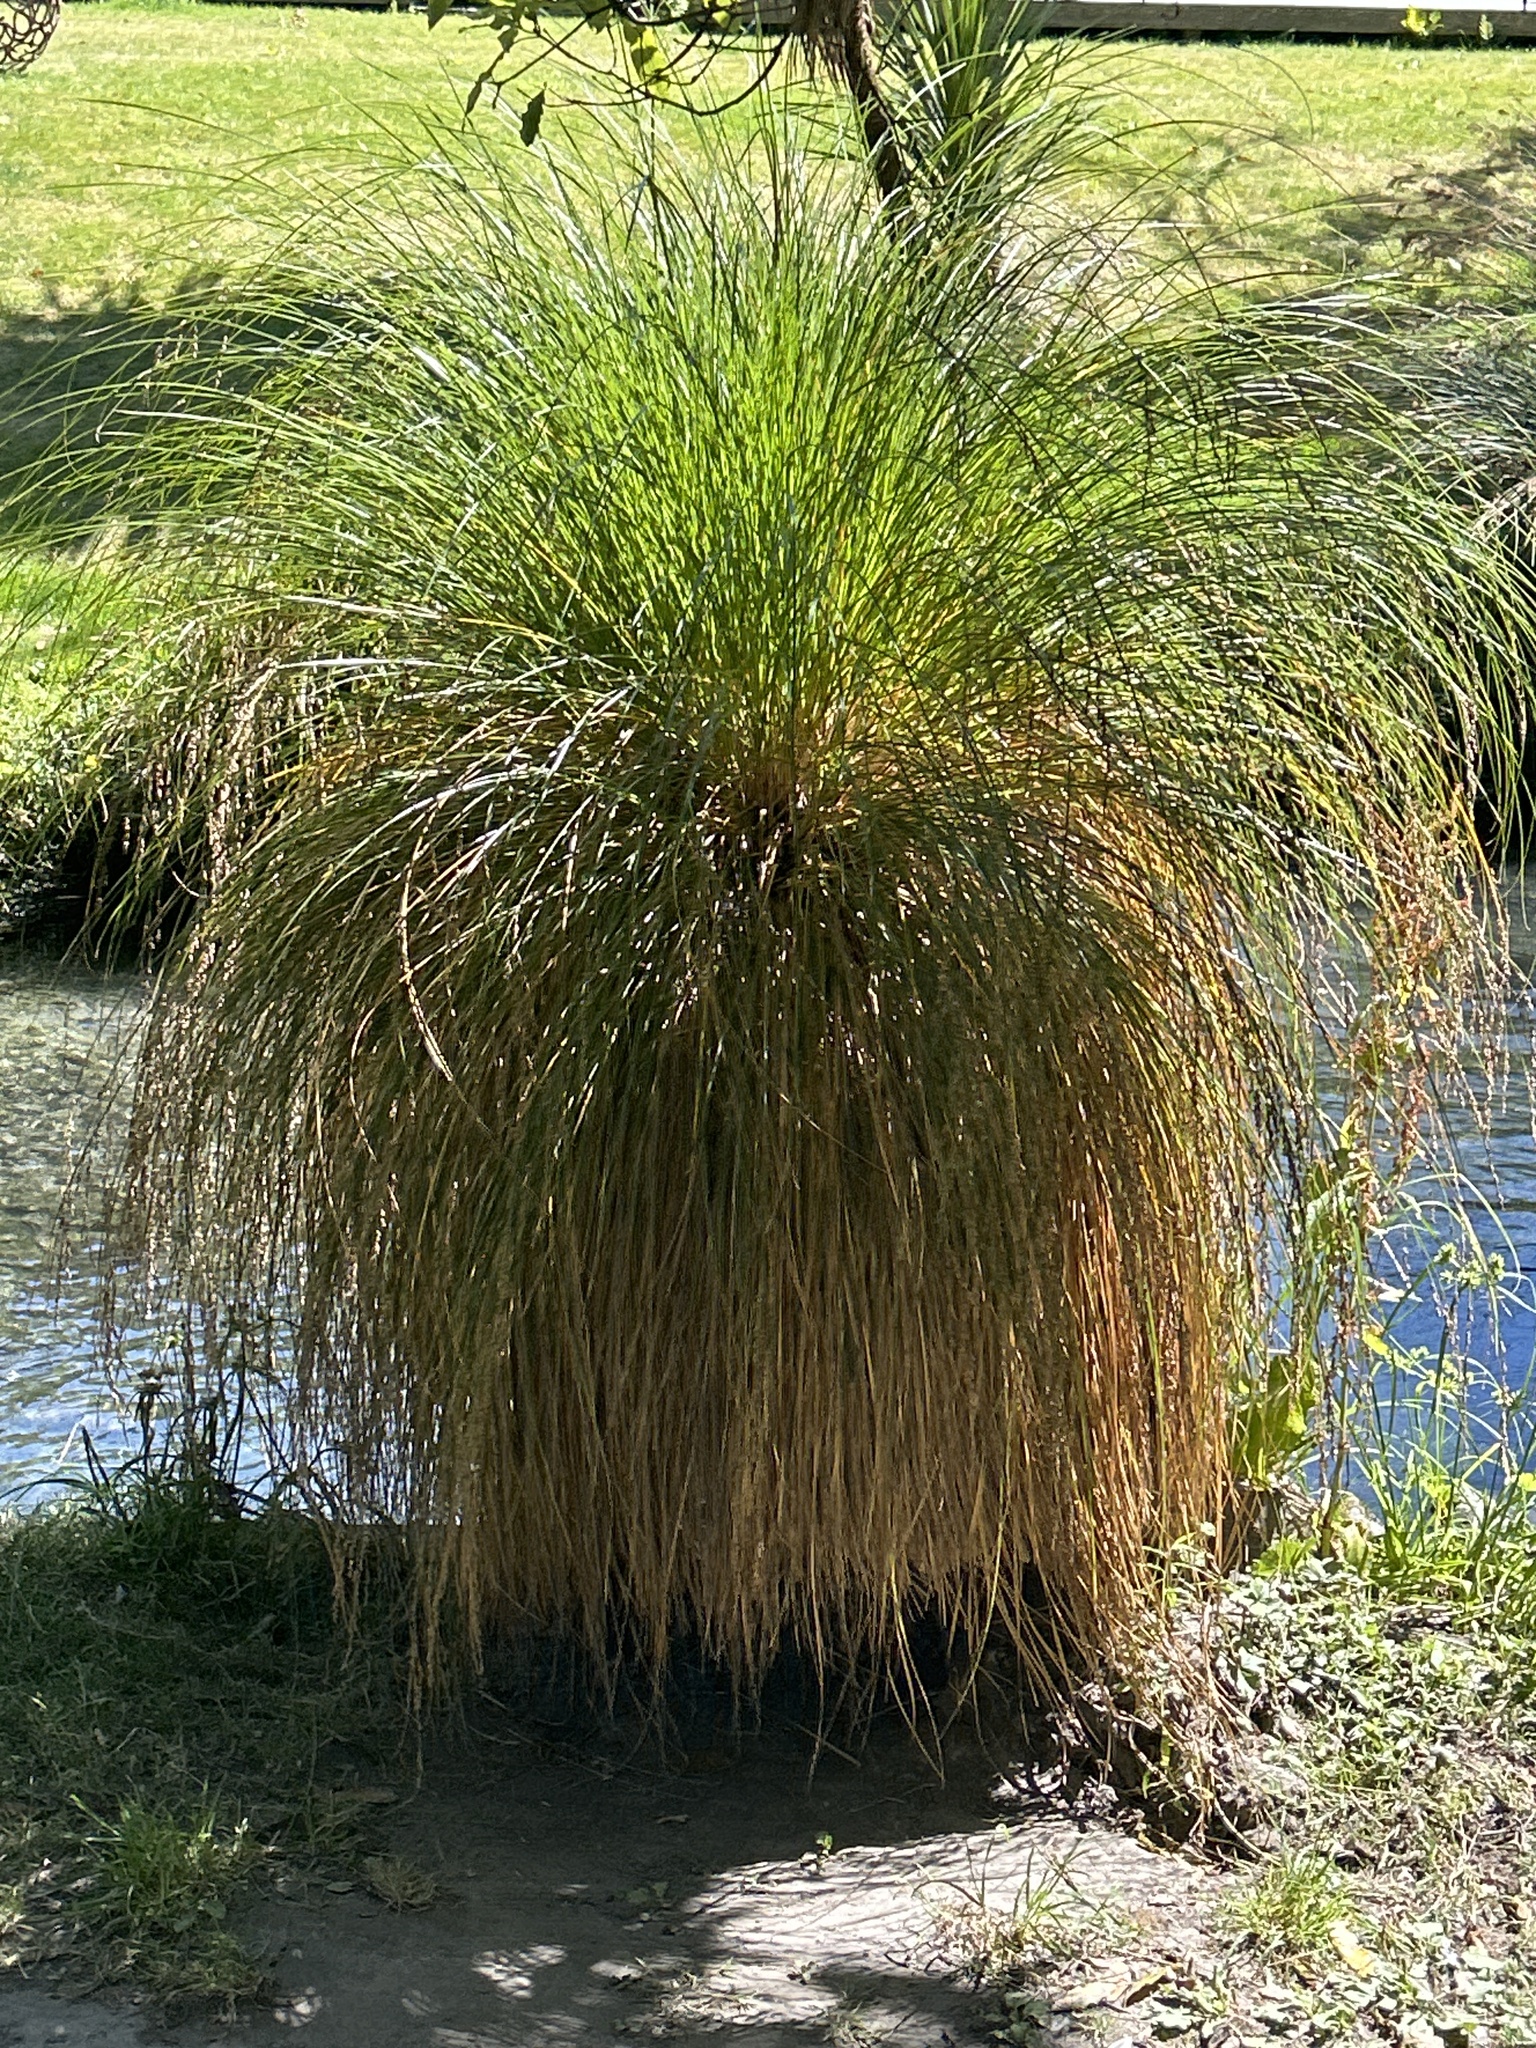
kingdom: Plantae
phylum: Tracheophyta
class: Liliopsida
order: Poales
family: Cyperaceae
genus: Carex
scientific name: Carex secta
